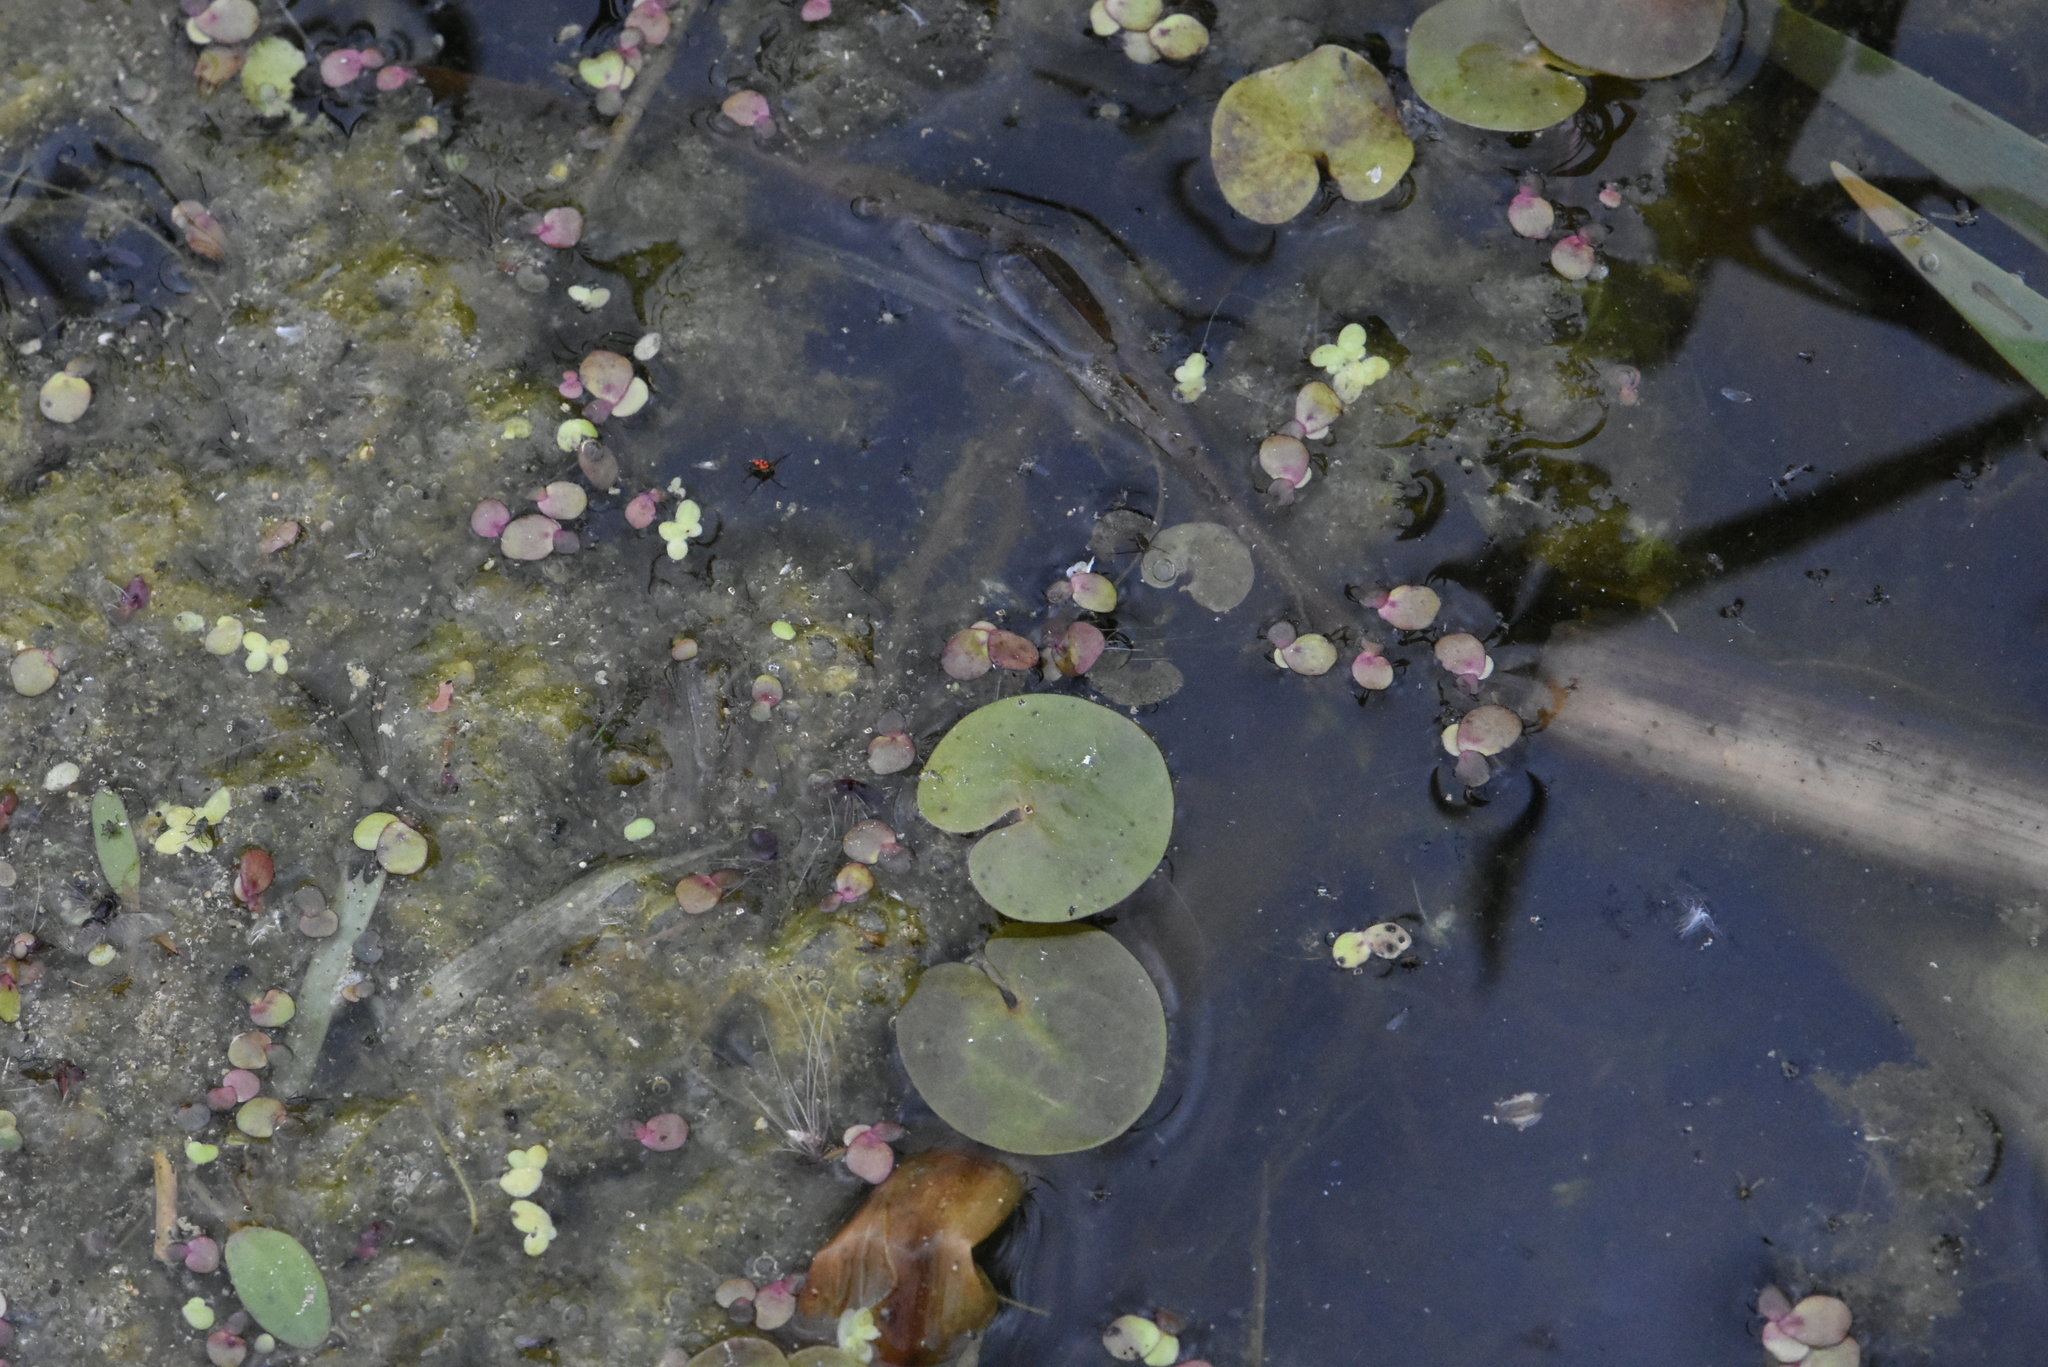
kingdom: Plantae
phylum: Tracheophyta
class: Liliopsida
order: Alismatales
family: Hydrocharitaceae
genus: Hydrocharis
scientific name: Hydrocharis morsus-ranae
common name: Frogbit
